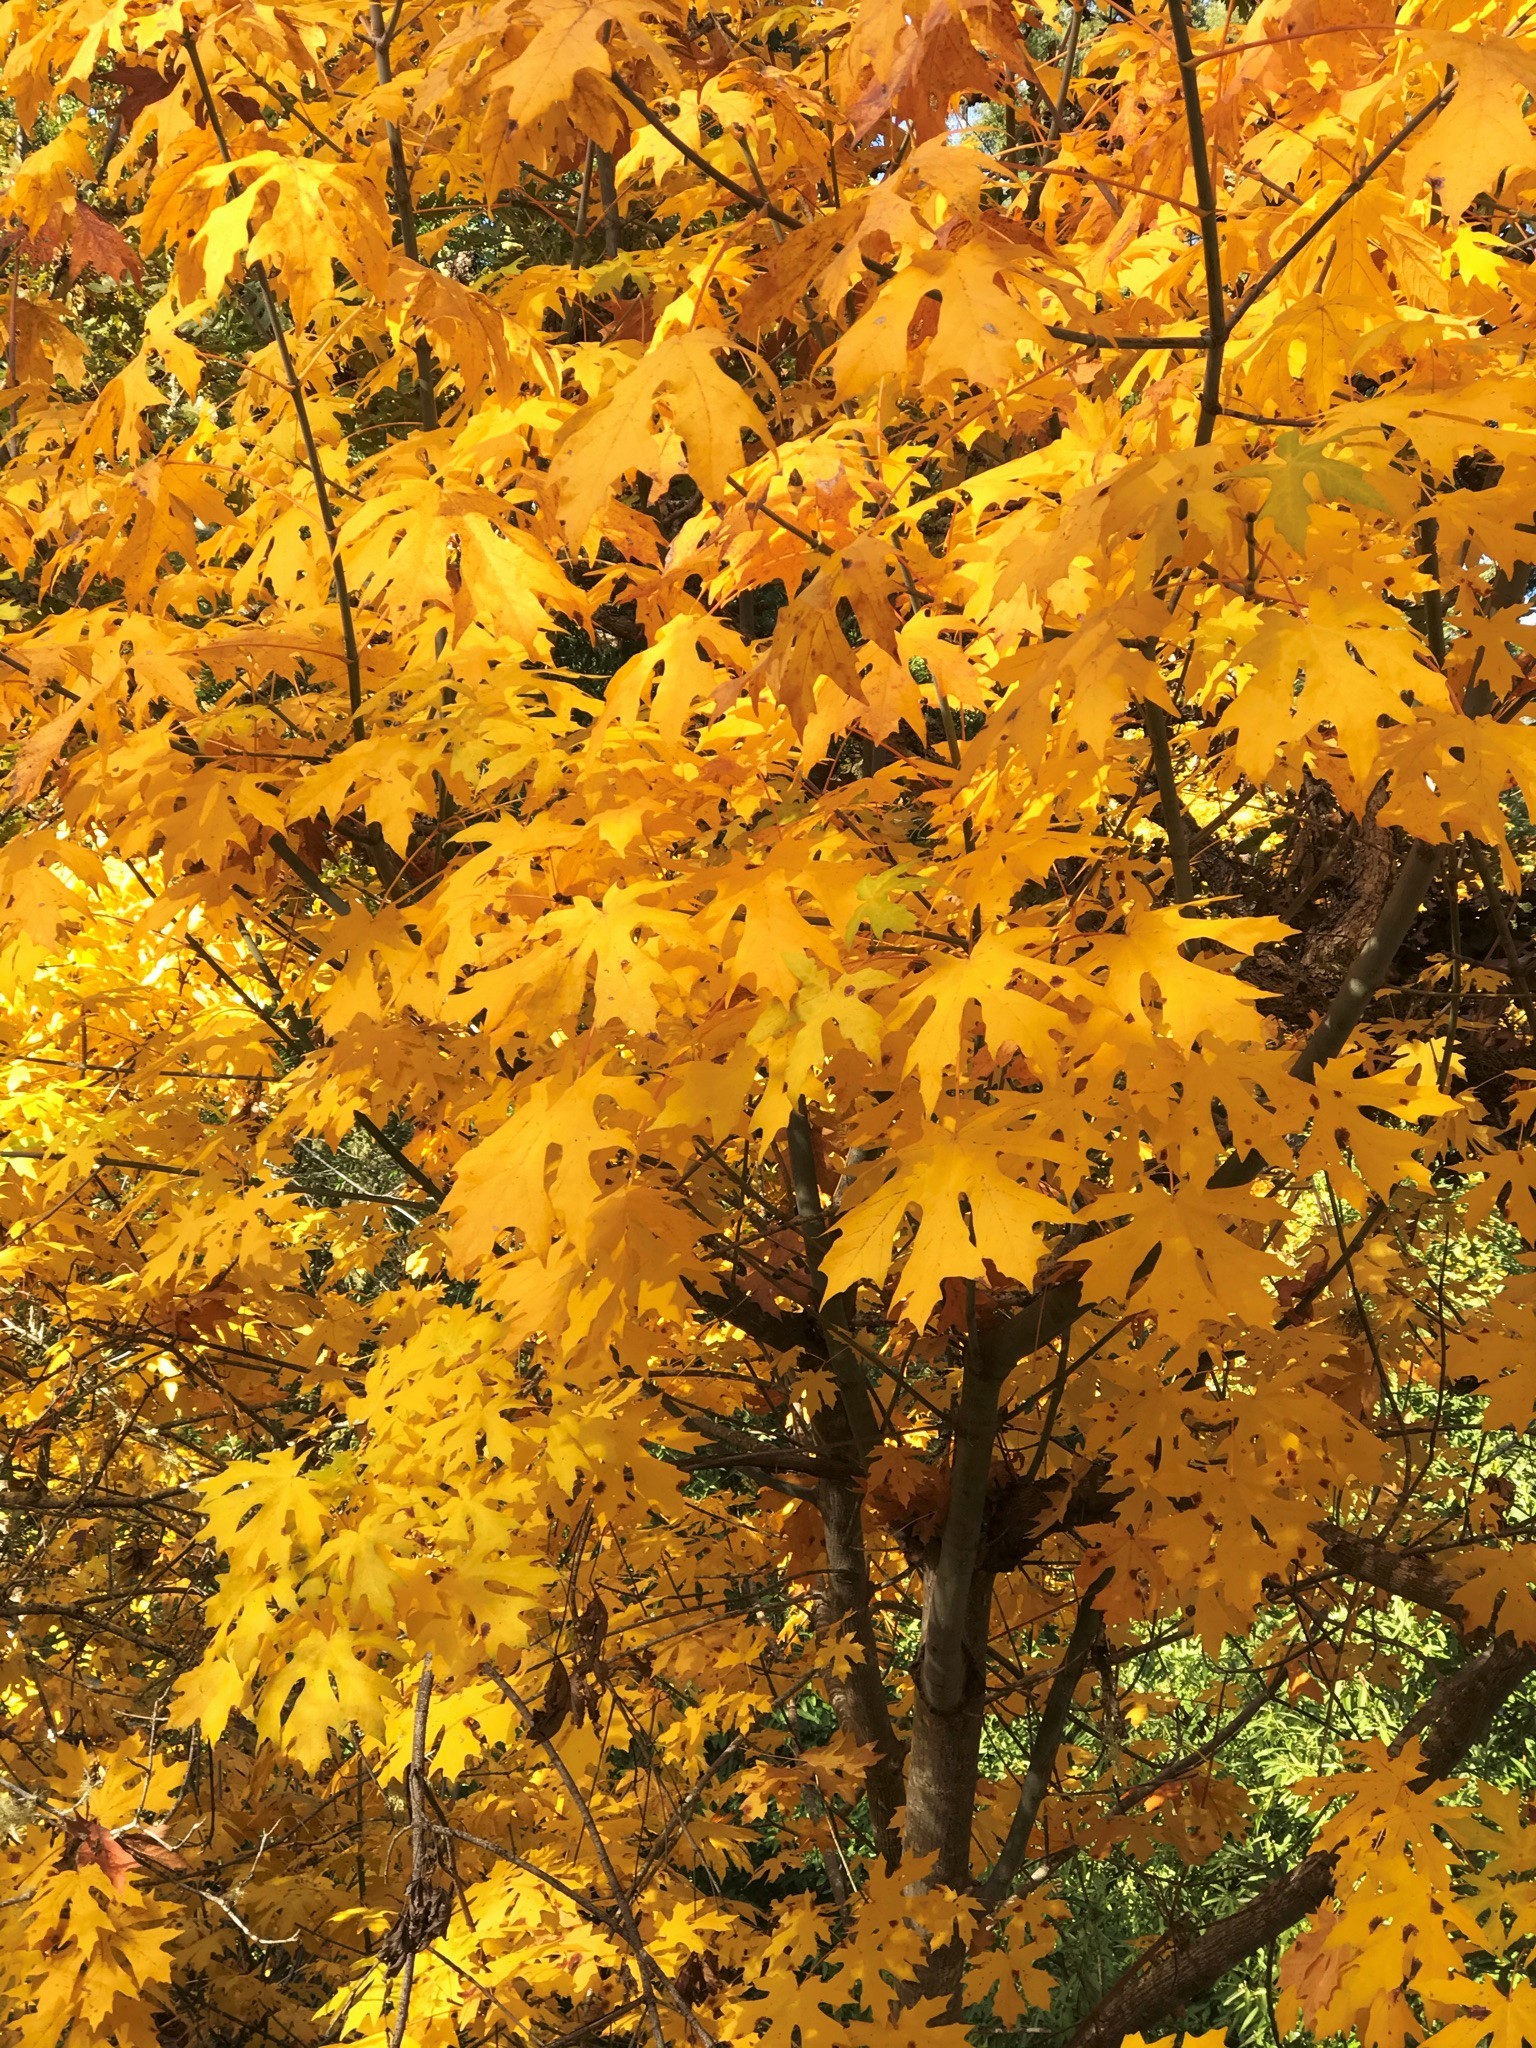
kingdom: Plantae
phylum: Tracheophyta
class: Magnoliopsida
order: Sapindales
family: Sapindaceae
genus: Acer
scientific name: Acer macrophyllum
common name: Oregon maple
